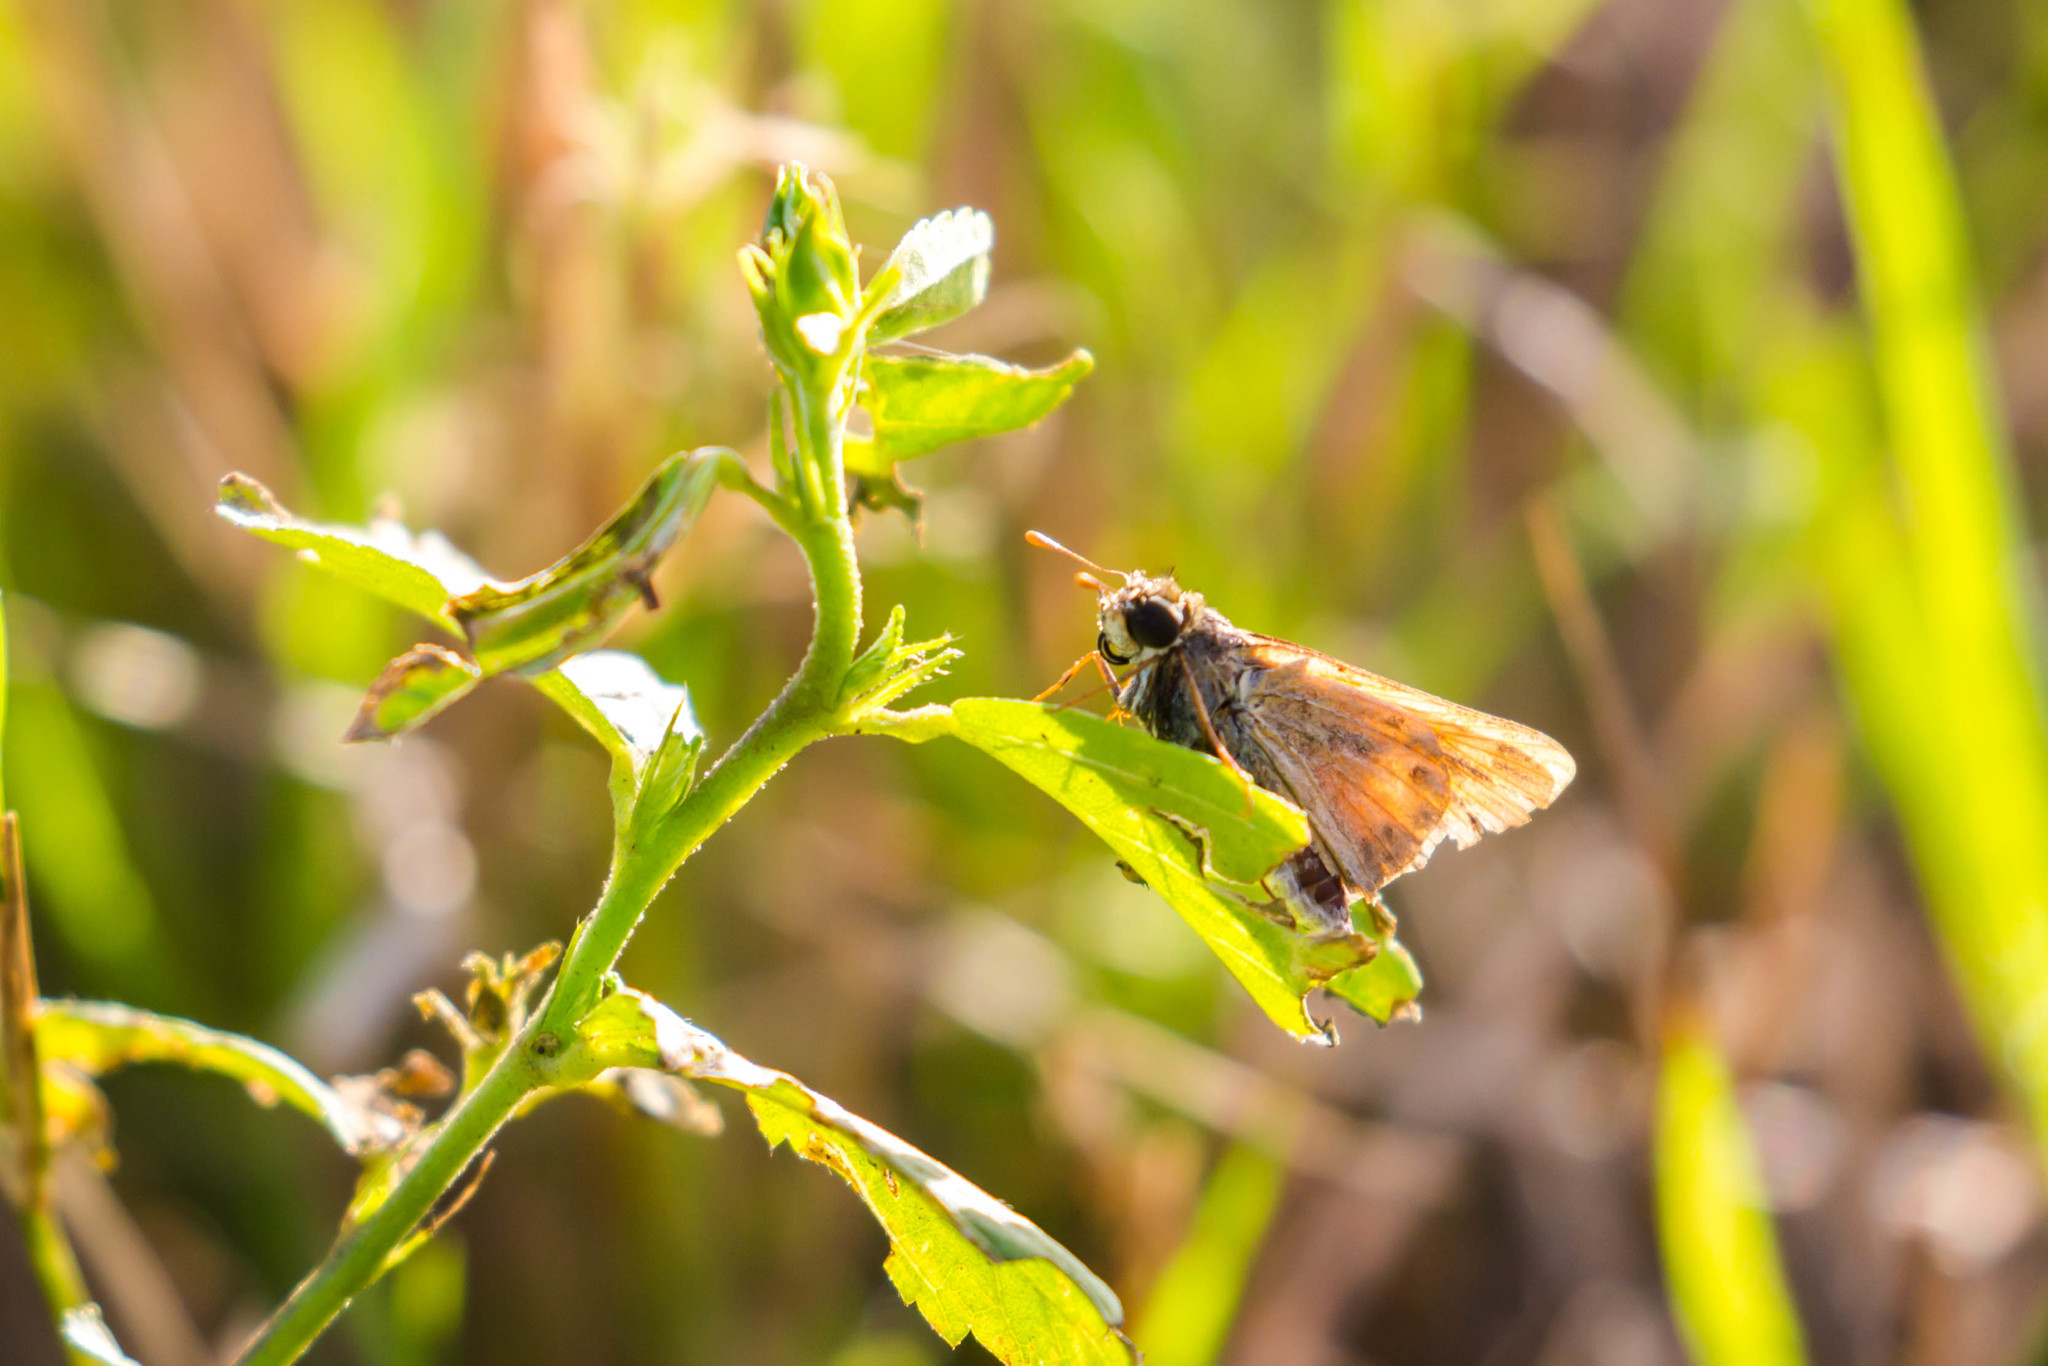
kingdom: Animalia
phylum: Arthropoda
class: Insecta
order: Lepidoptera
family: Hesperiidae
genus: Atalopedes
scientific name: Atalopedes
